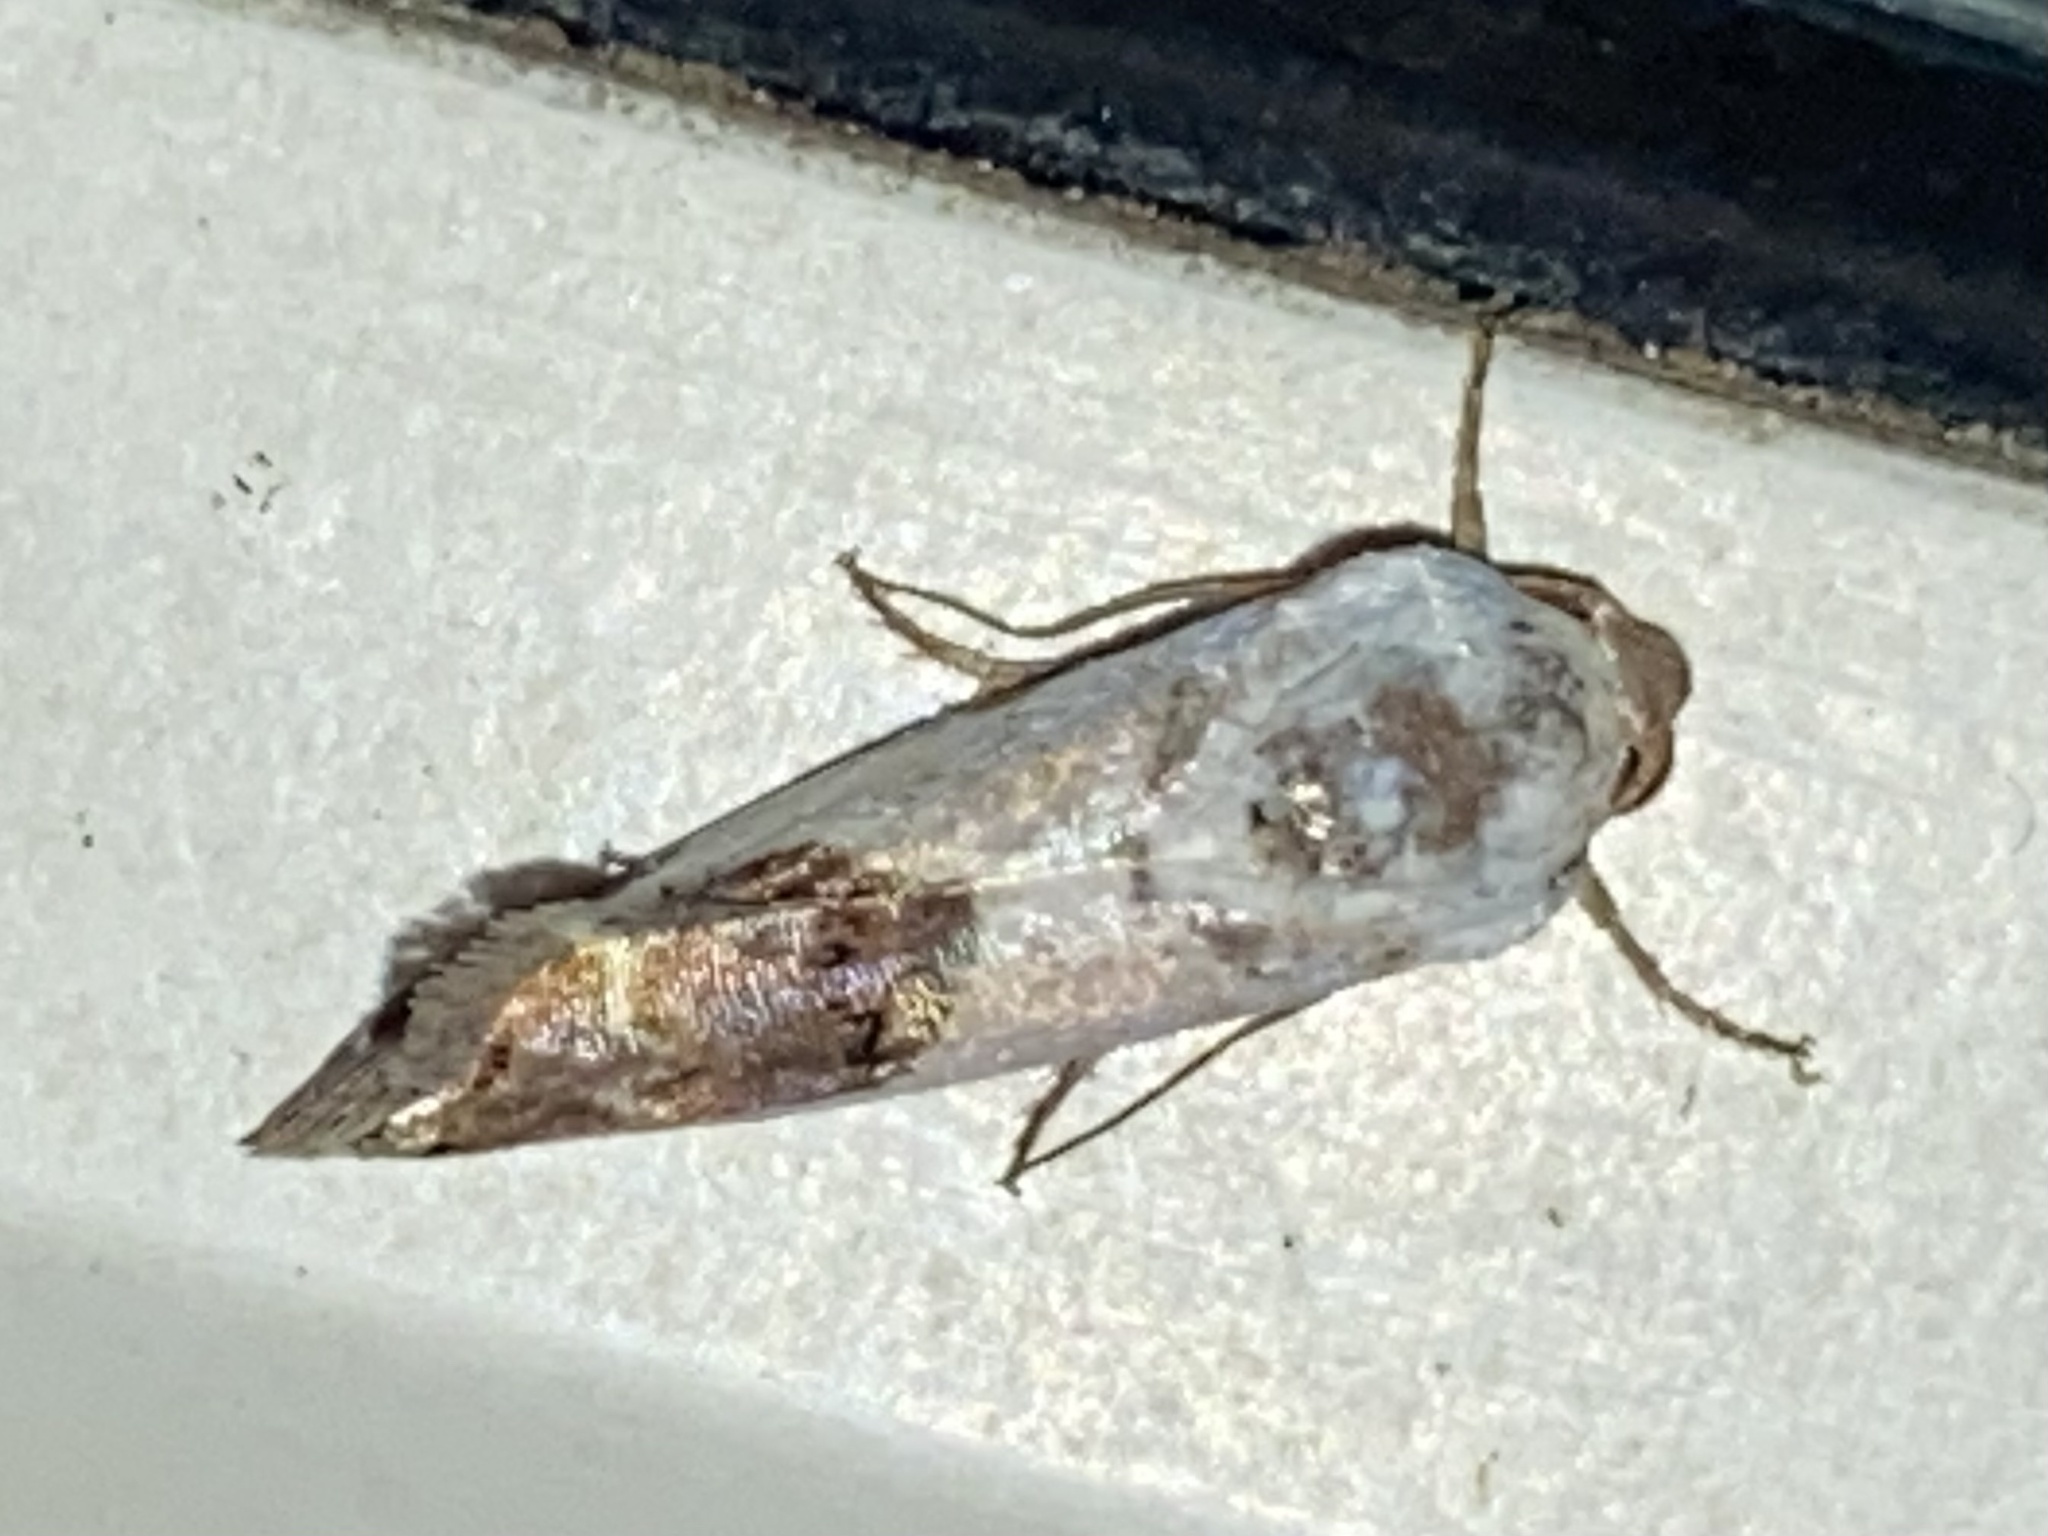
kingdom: Animalia
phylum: Arthropoda
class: Insecta
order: Lepidoptera
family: Noctuidae
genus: Acontia
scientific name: Acontia Tarache tetragona
